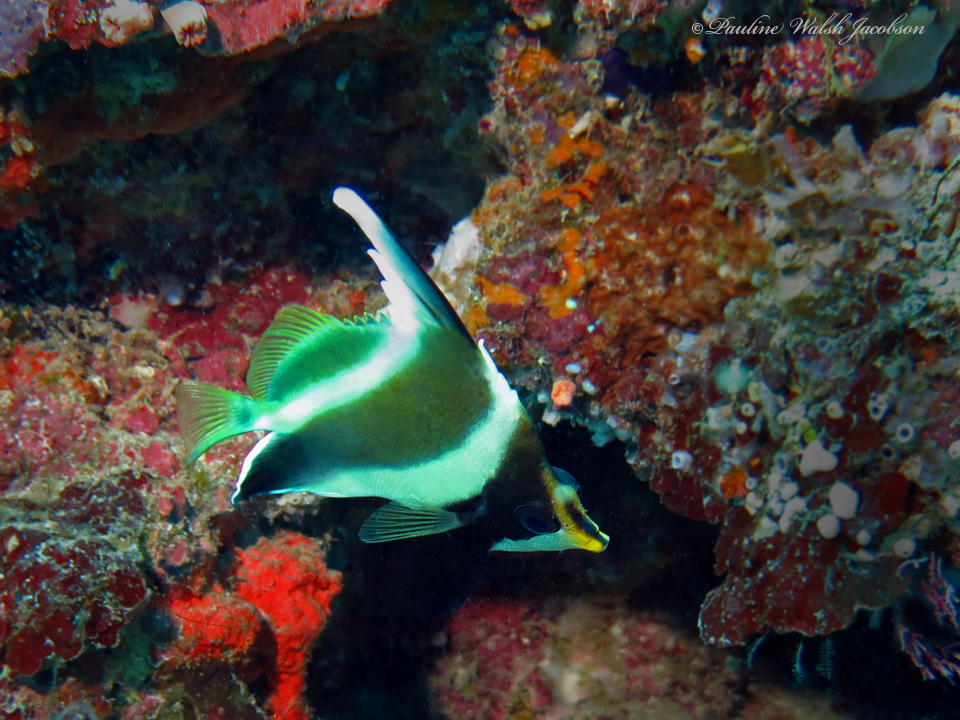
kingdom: Animalia
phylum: Chordata
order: Perciformes
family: Chaetodontidae
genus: Heniochus
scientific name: Heniochus chrysostomus
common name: Horned bannerfish
